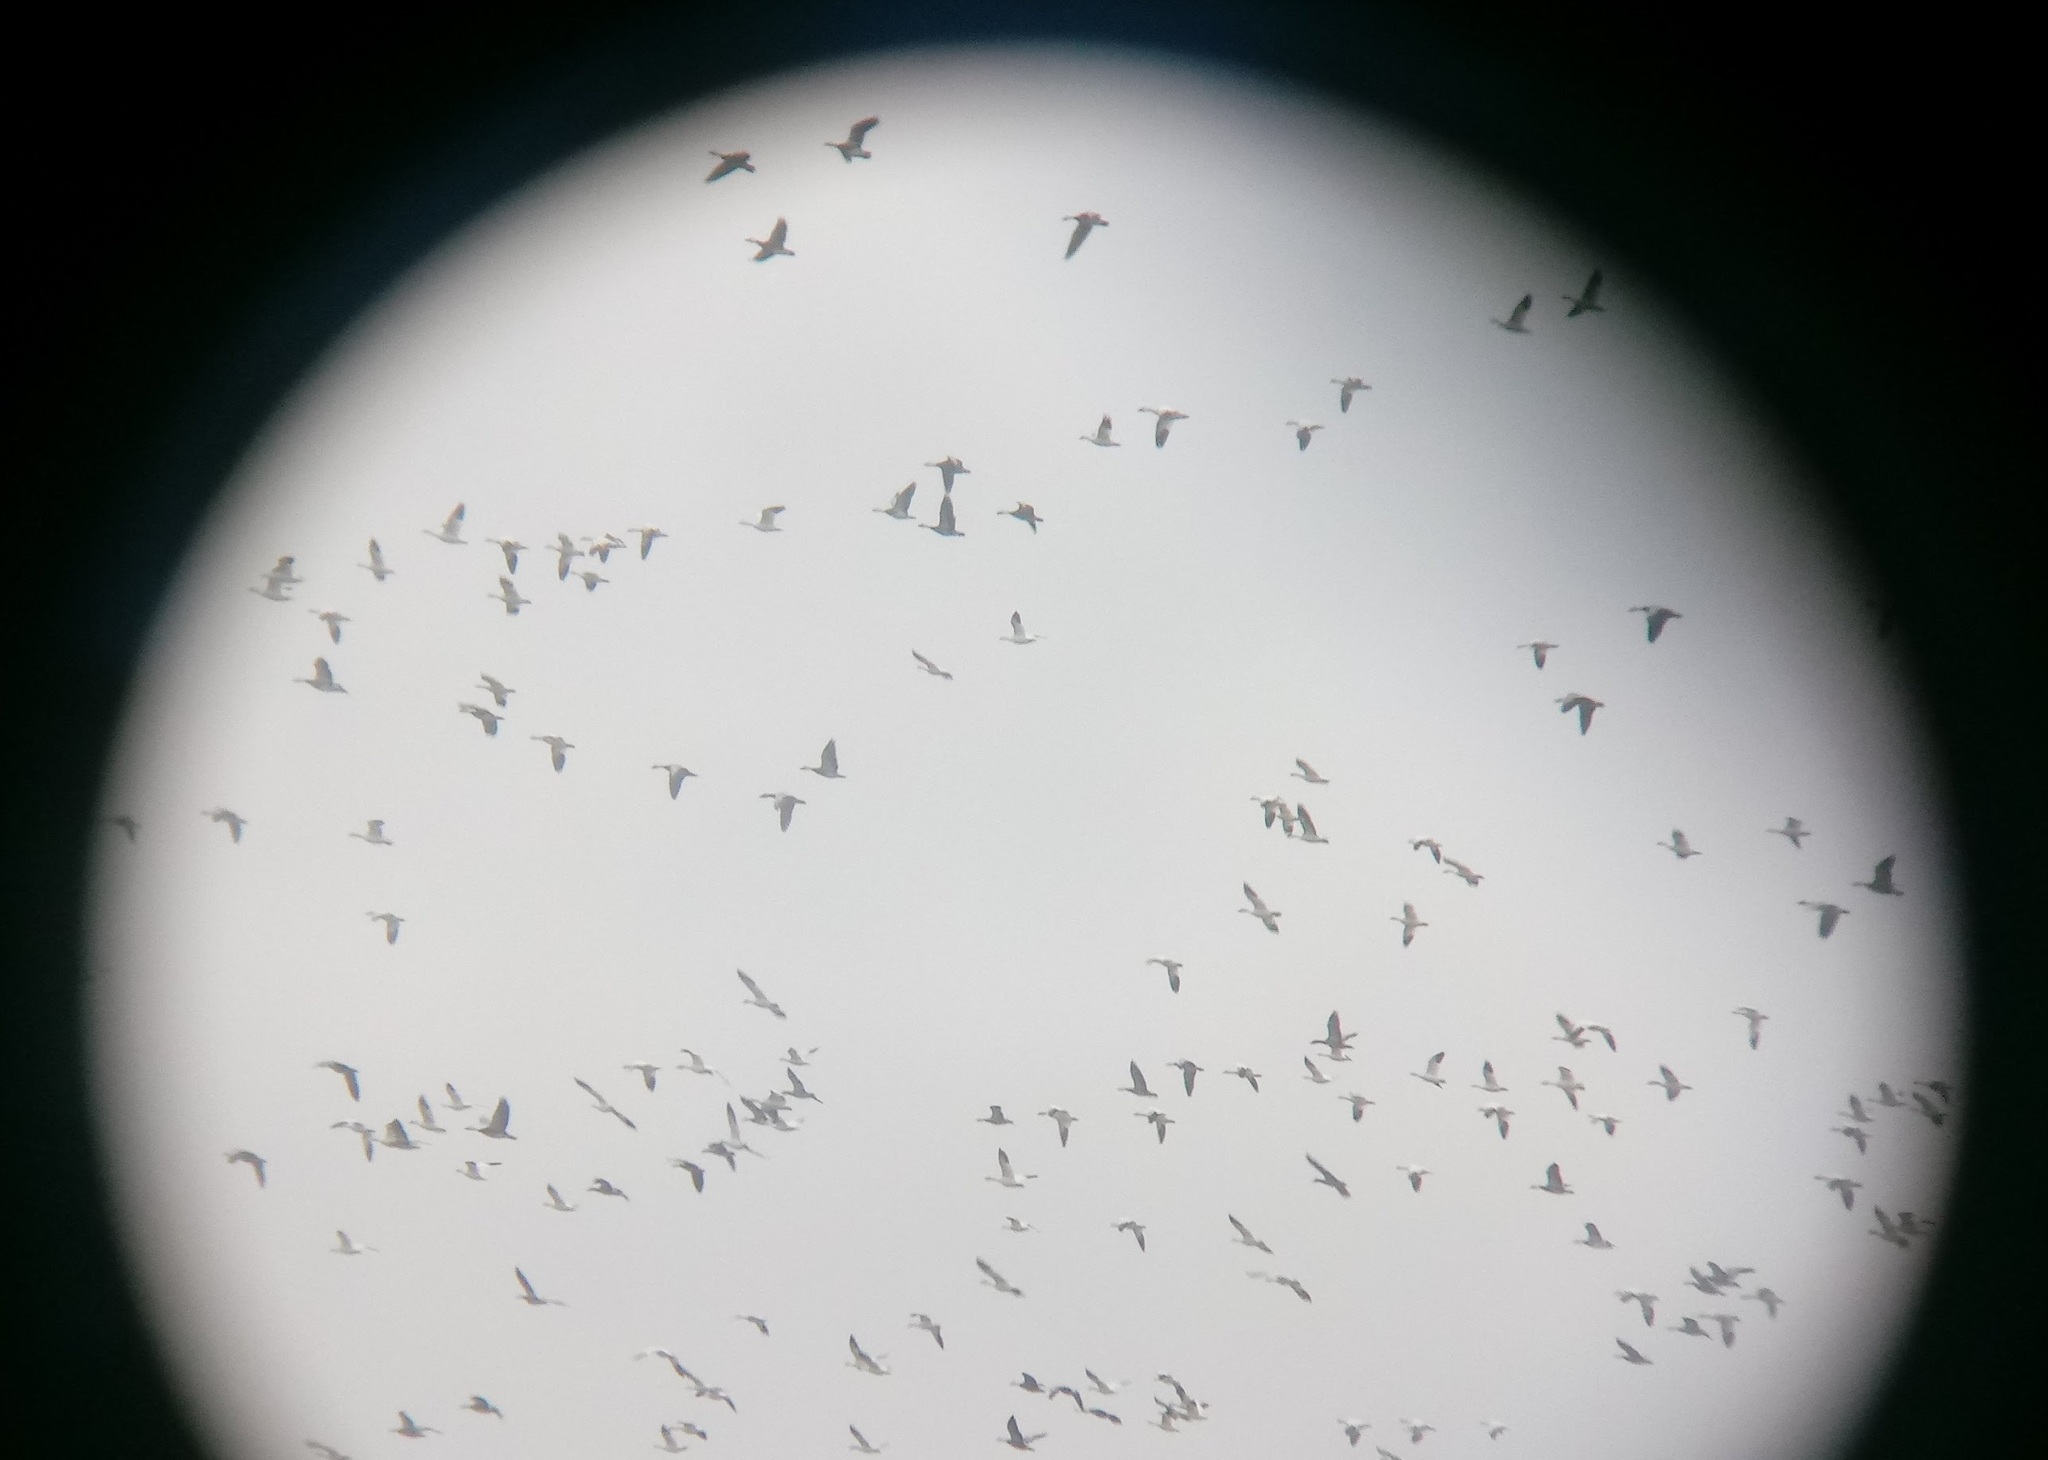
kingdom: Animalia
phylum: Chordata
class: Aves
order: Anseriformes
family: Anatidae
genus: Anser
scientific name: Anser caerulescens
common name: Snow goose
